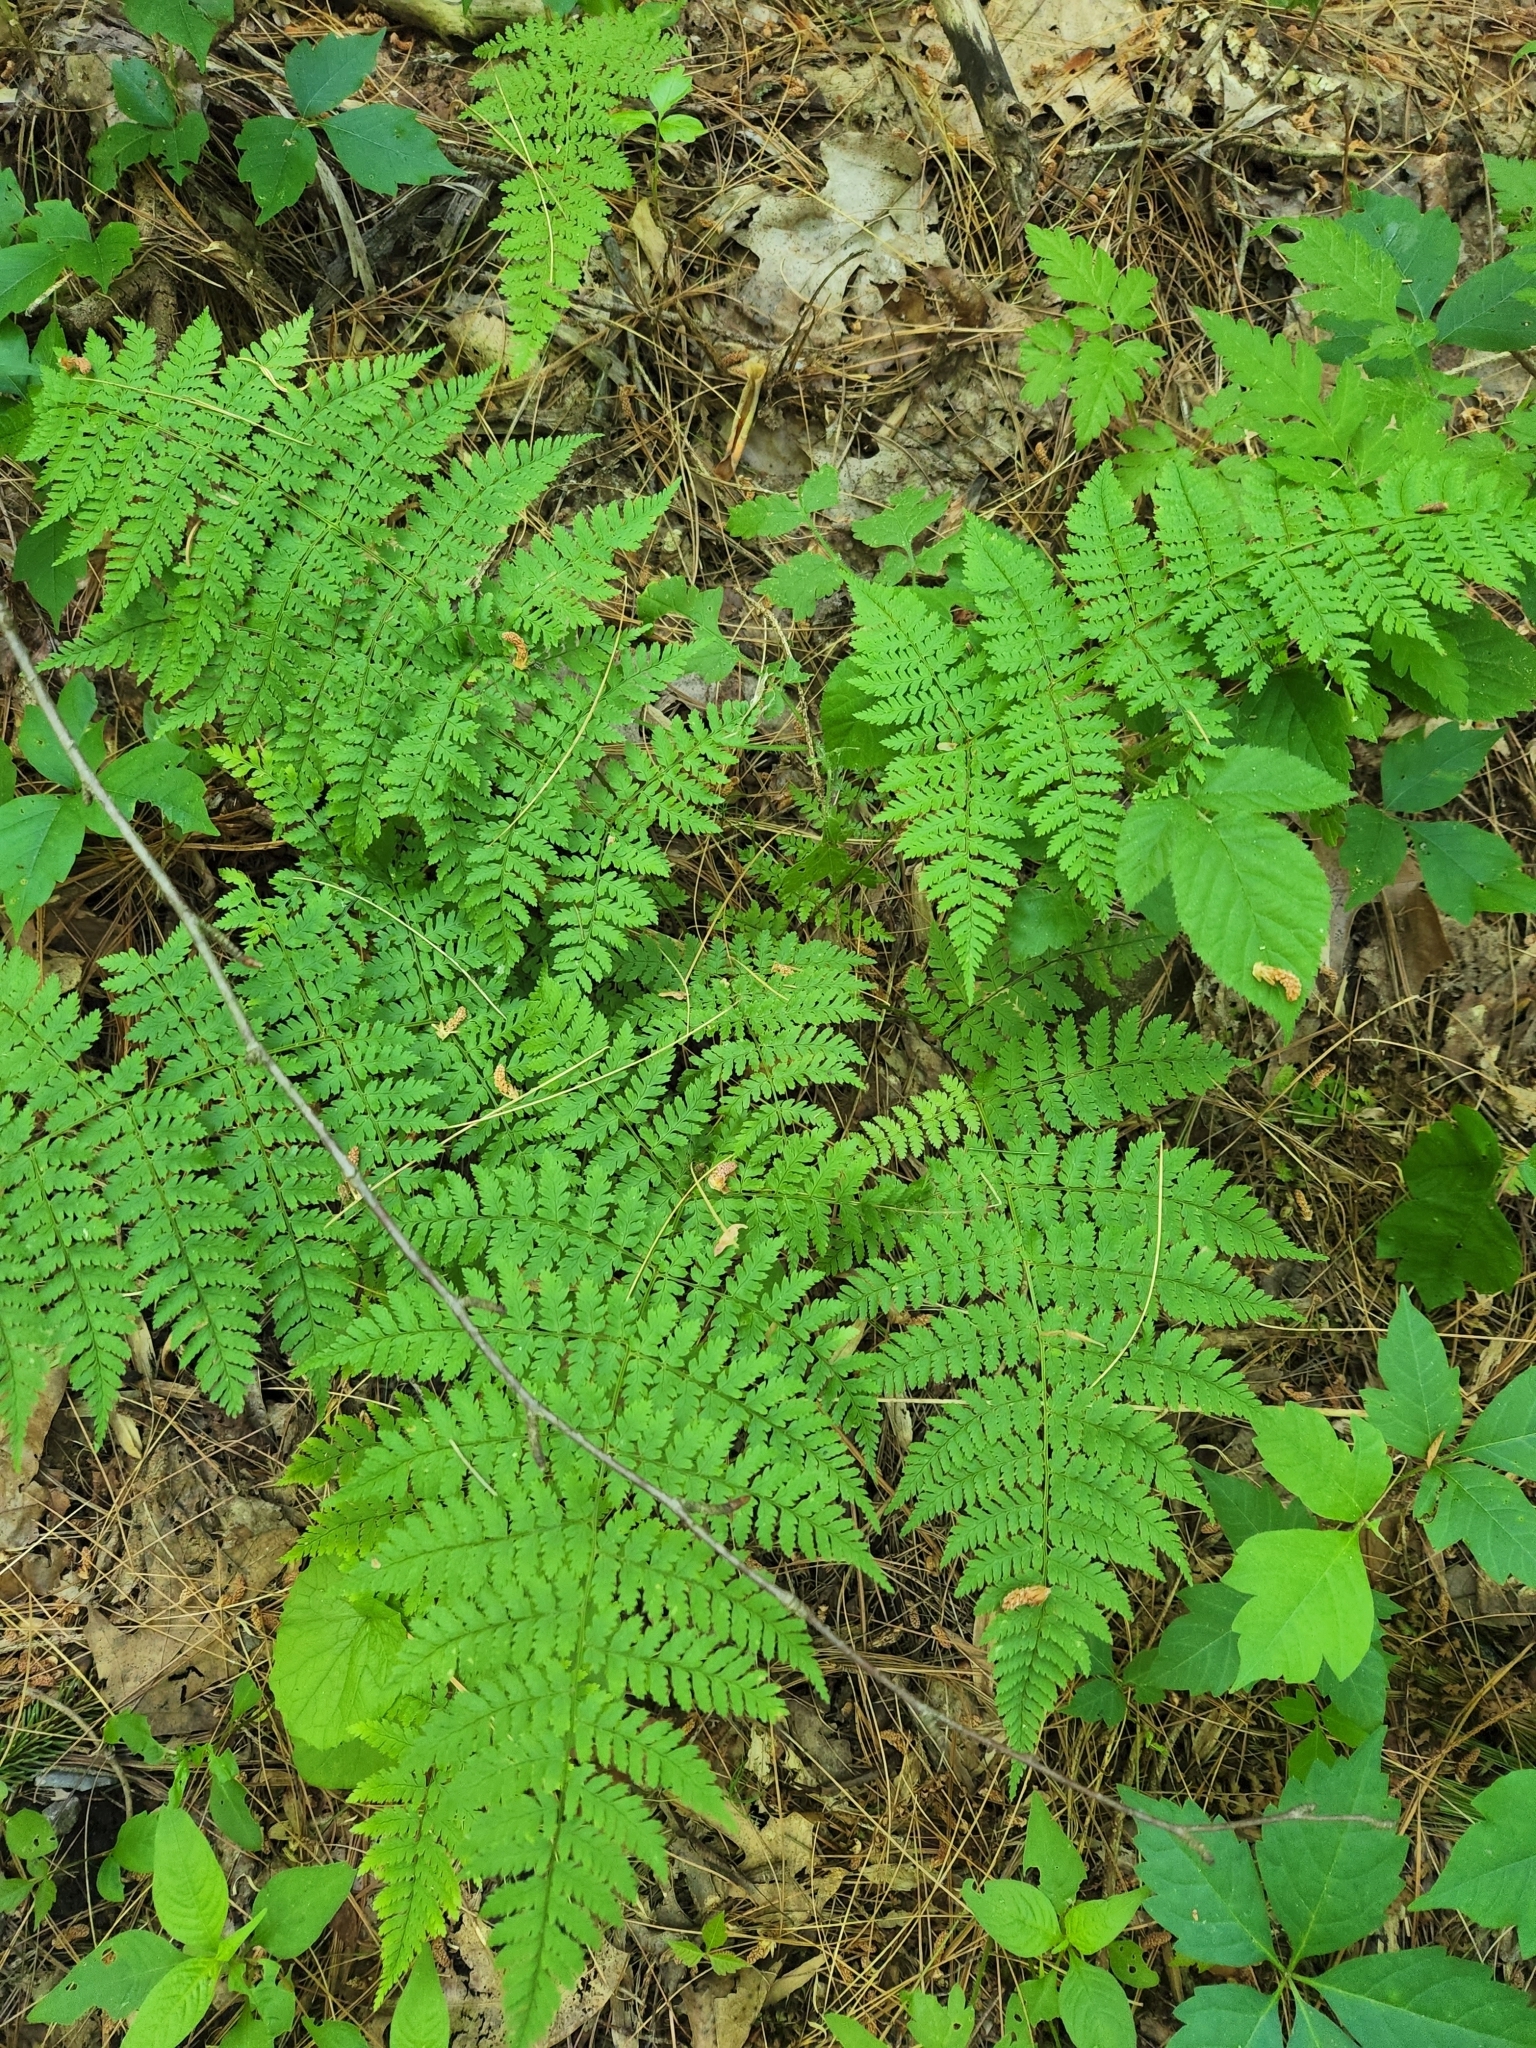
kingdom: Plantae
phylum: Tracheophyta
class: Polypodiopsida
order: Polypodiales
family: Dryopteridaceae
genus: Dryopteris
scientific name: Dryopteris intermedia
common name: Evergreen wood fern
